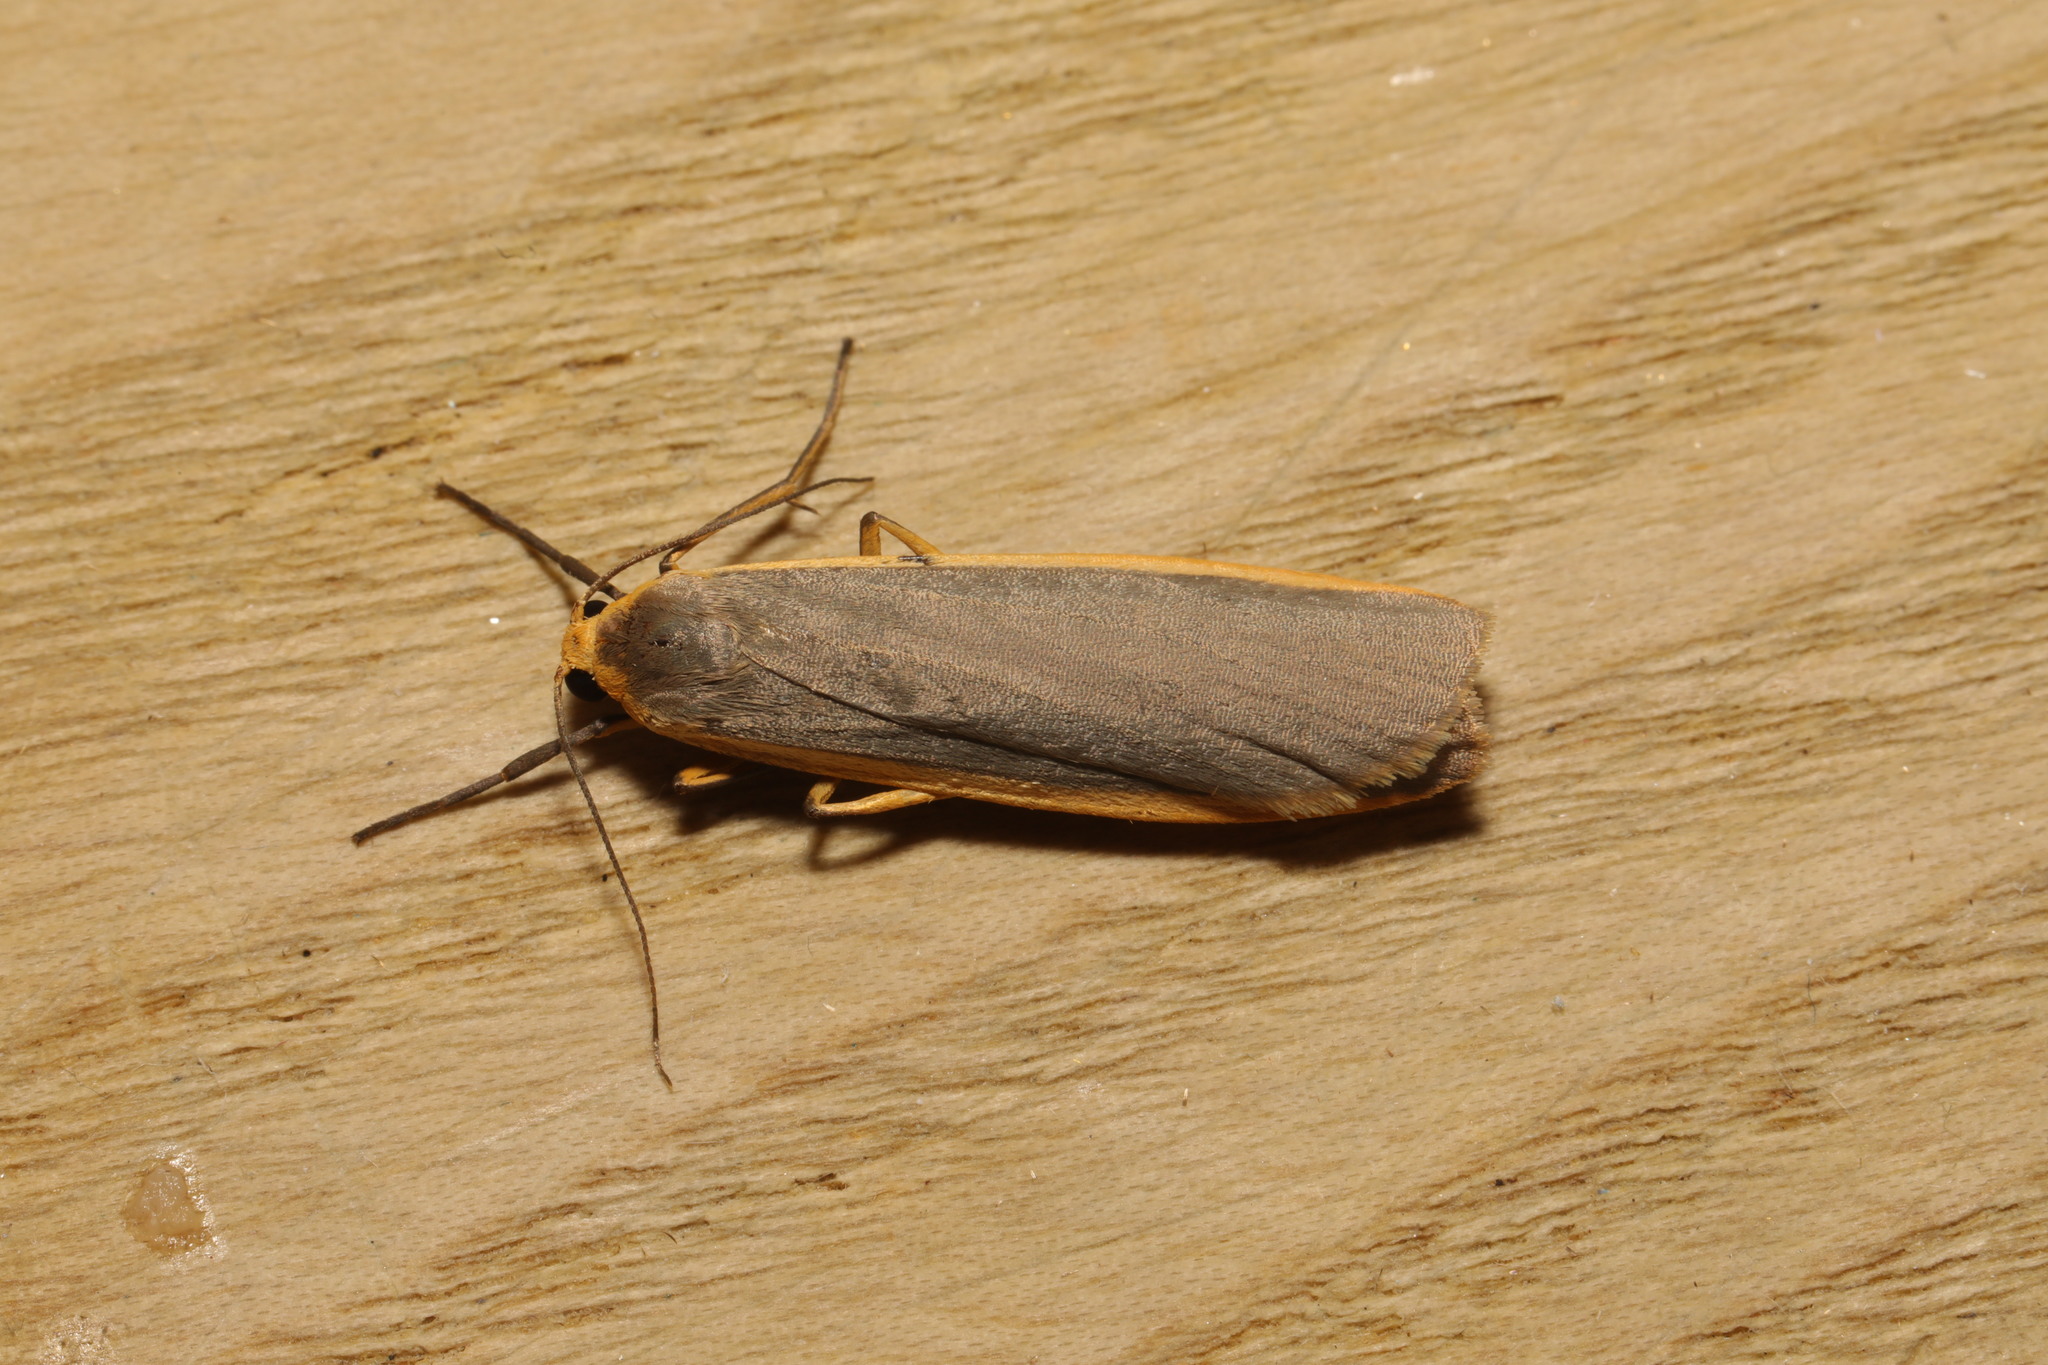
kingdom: Animalia
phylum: Arthropoda
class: Insecta
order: Lepidoptera
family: Erebidae
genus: Nyea
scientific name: Nyea lurideola
